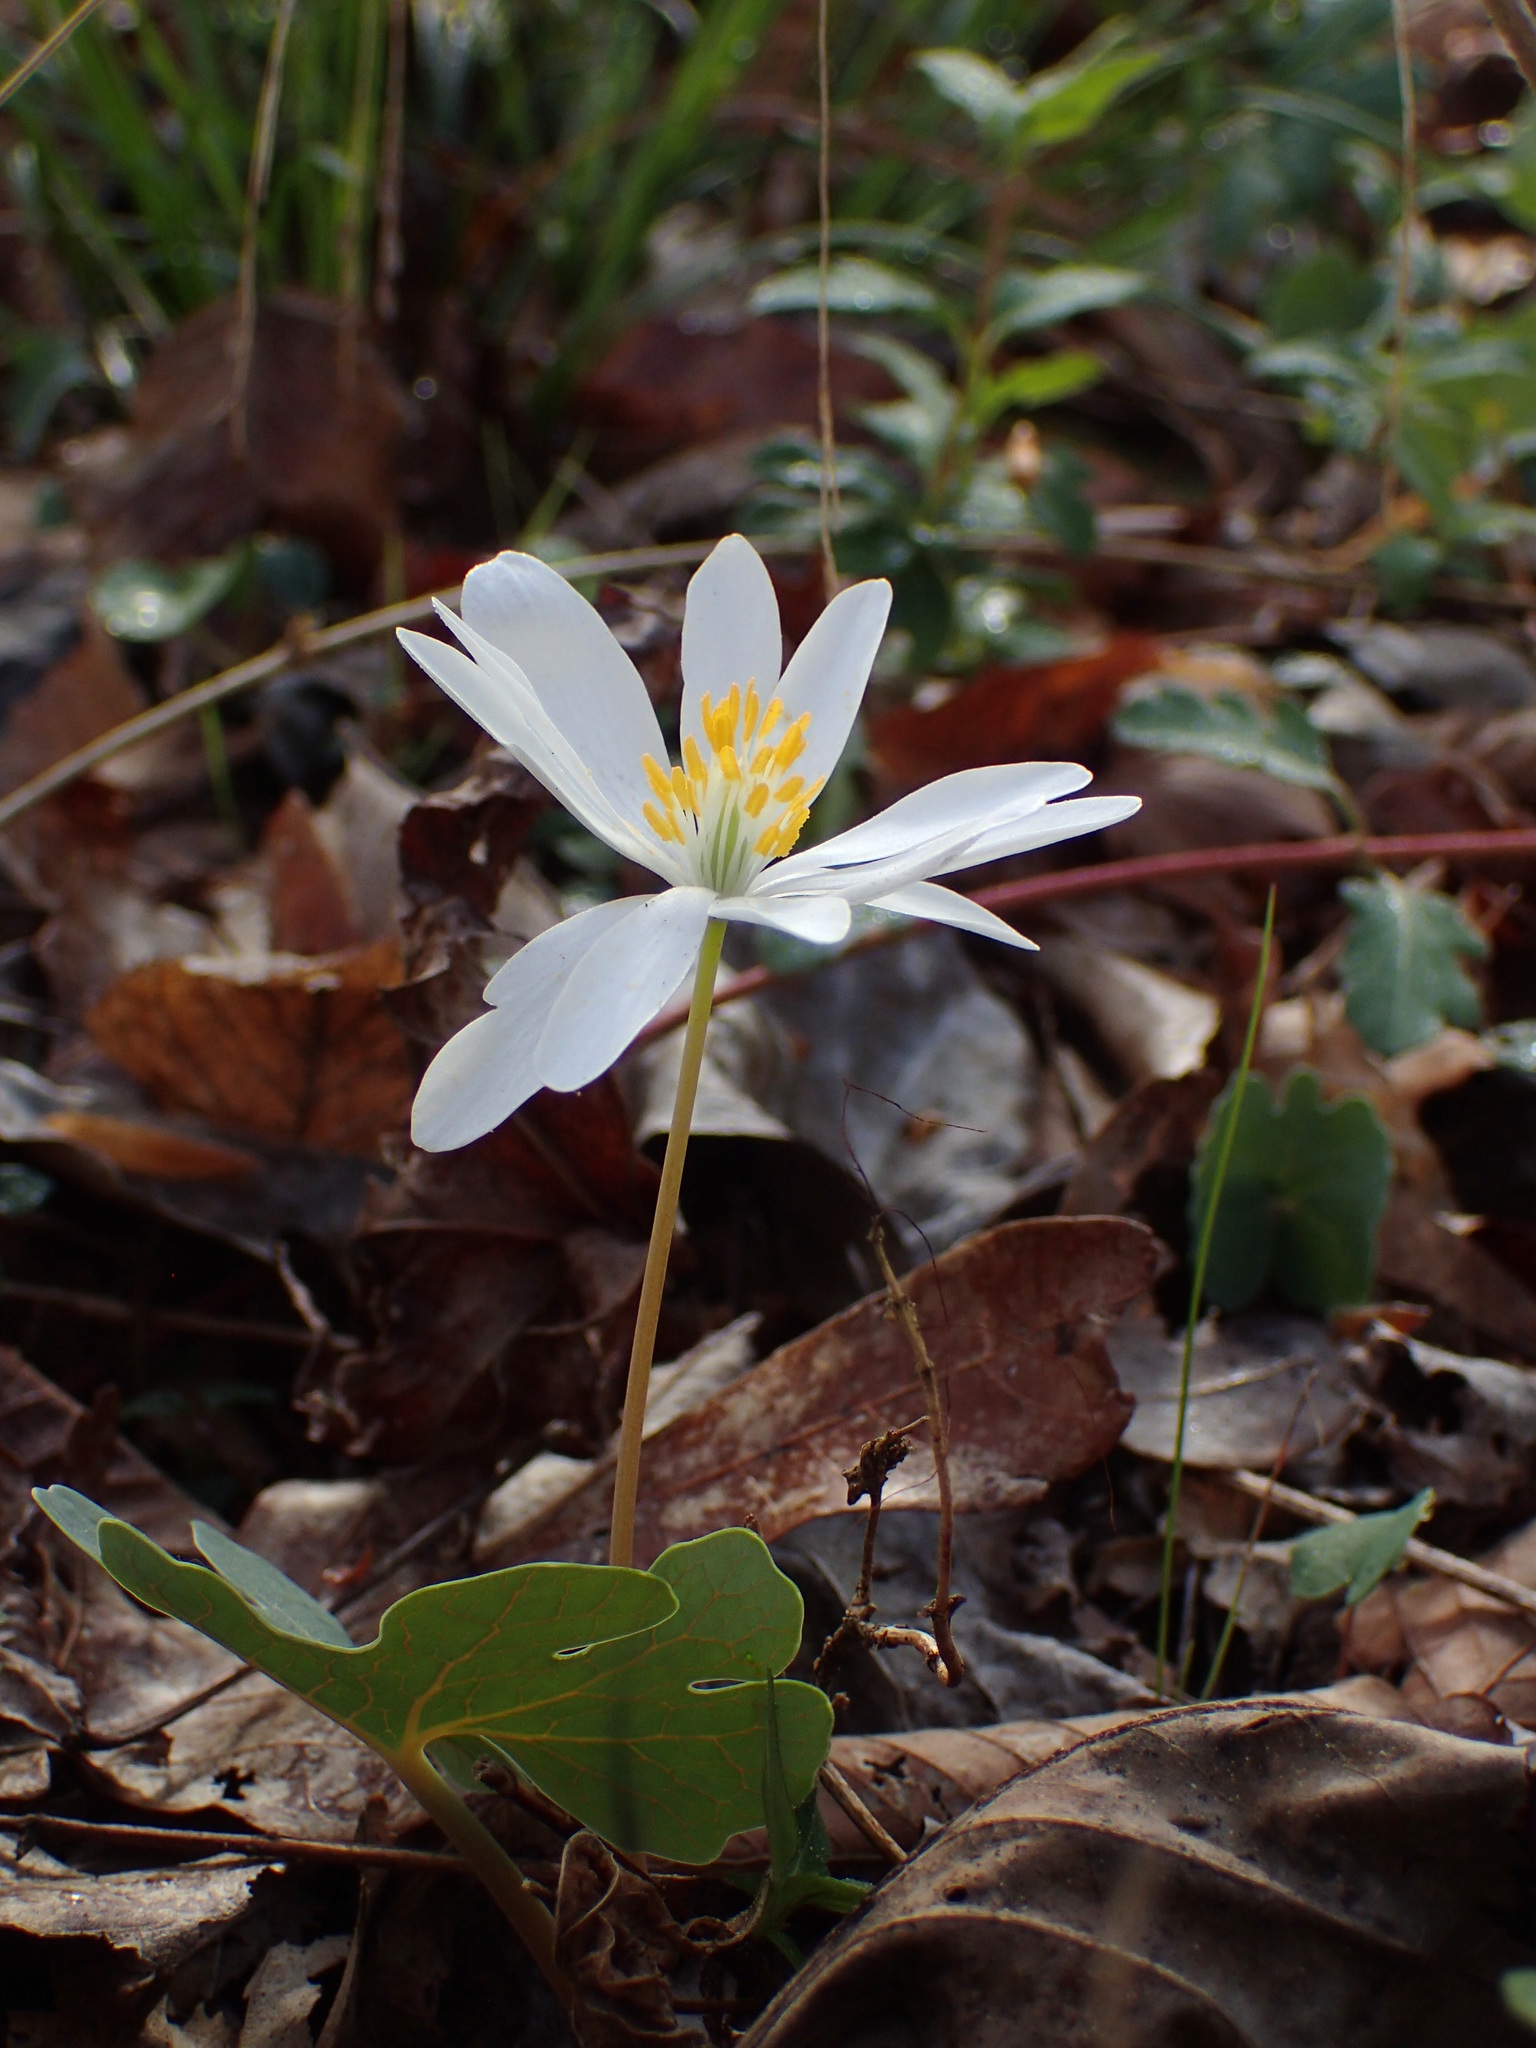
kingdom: Plantae
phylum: Tracheophyta
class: Magnoliopsida
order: Ranunculales
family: Papaveraceae
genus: Sanguinaria
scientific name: Sanguinaria canadensis
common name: Bloodroot
